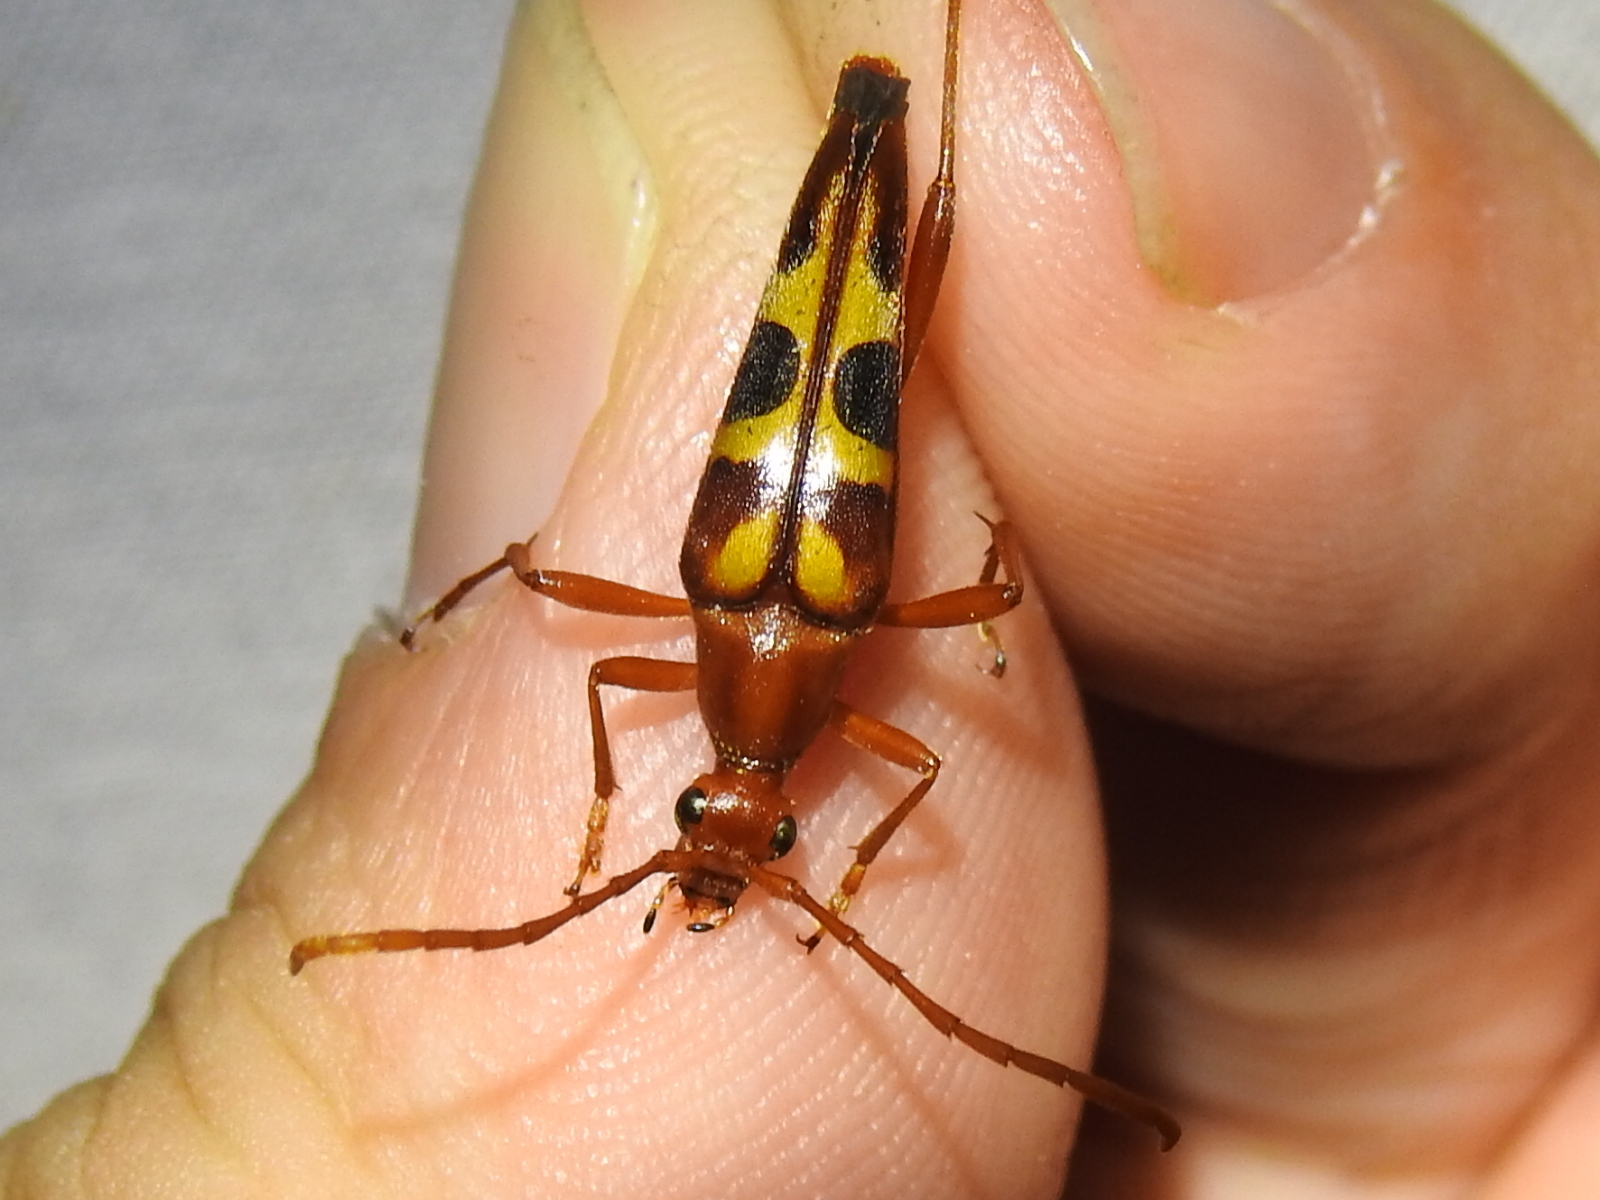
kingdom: Animalia
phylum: Arthropoda
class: Insecta
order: Coleoptera
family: Cerambycidae
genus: Strangalia
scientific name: Strangalia sexnotata
